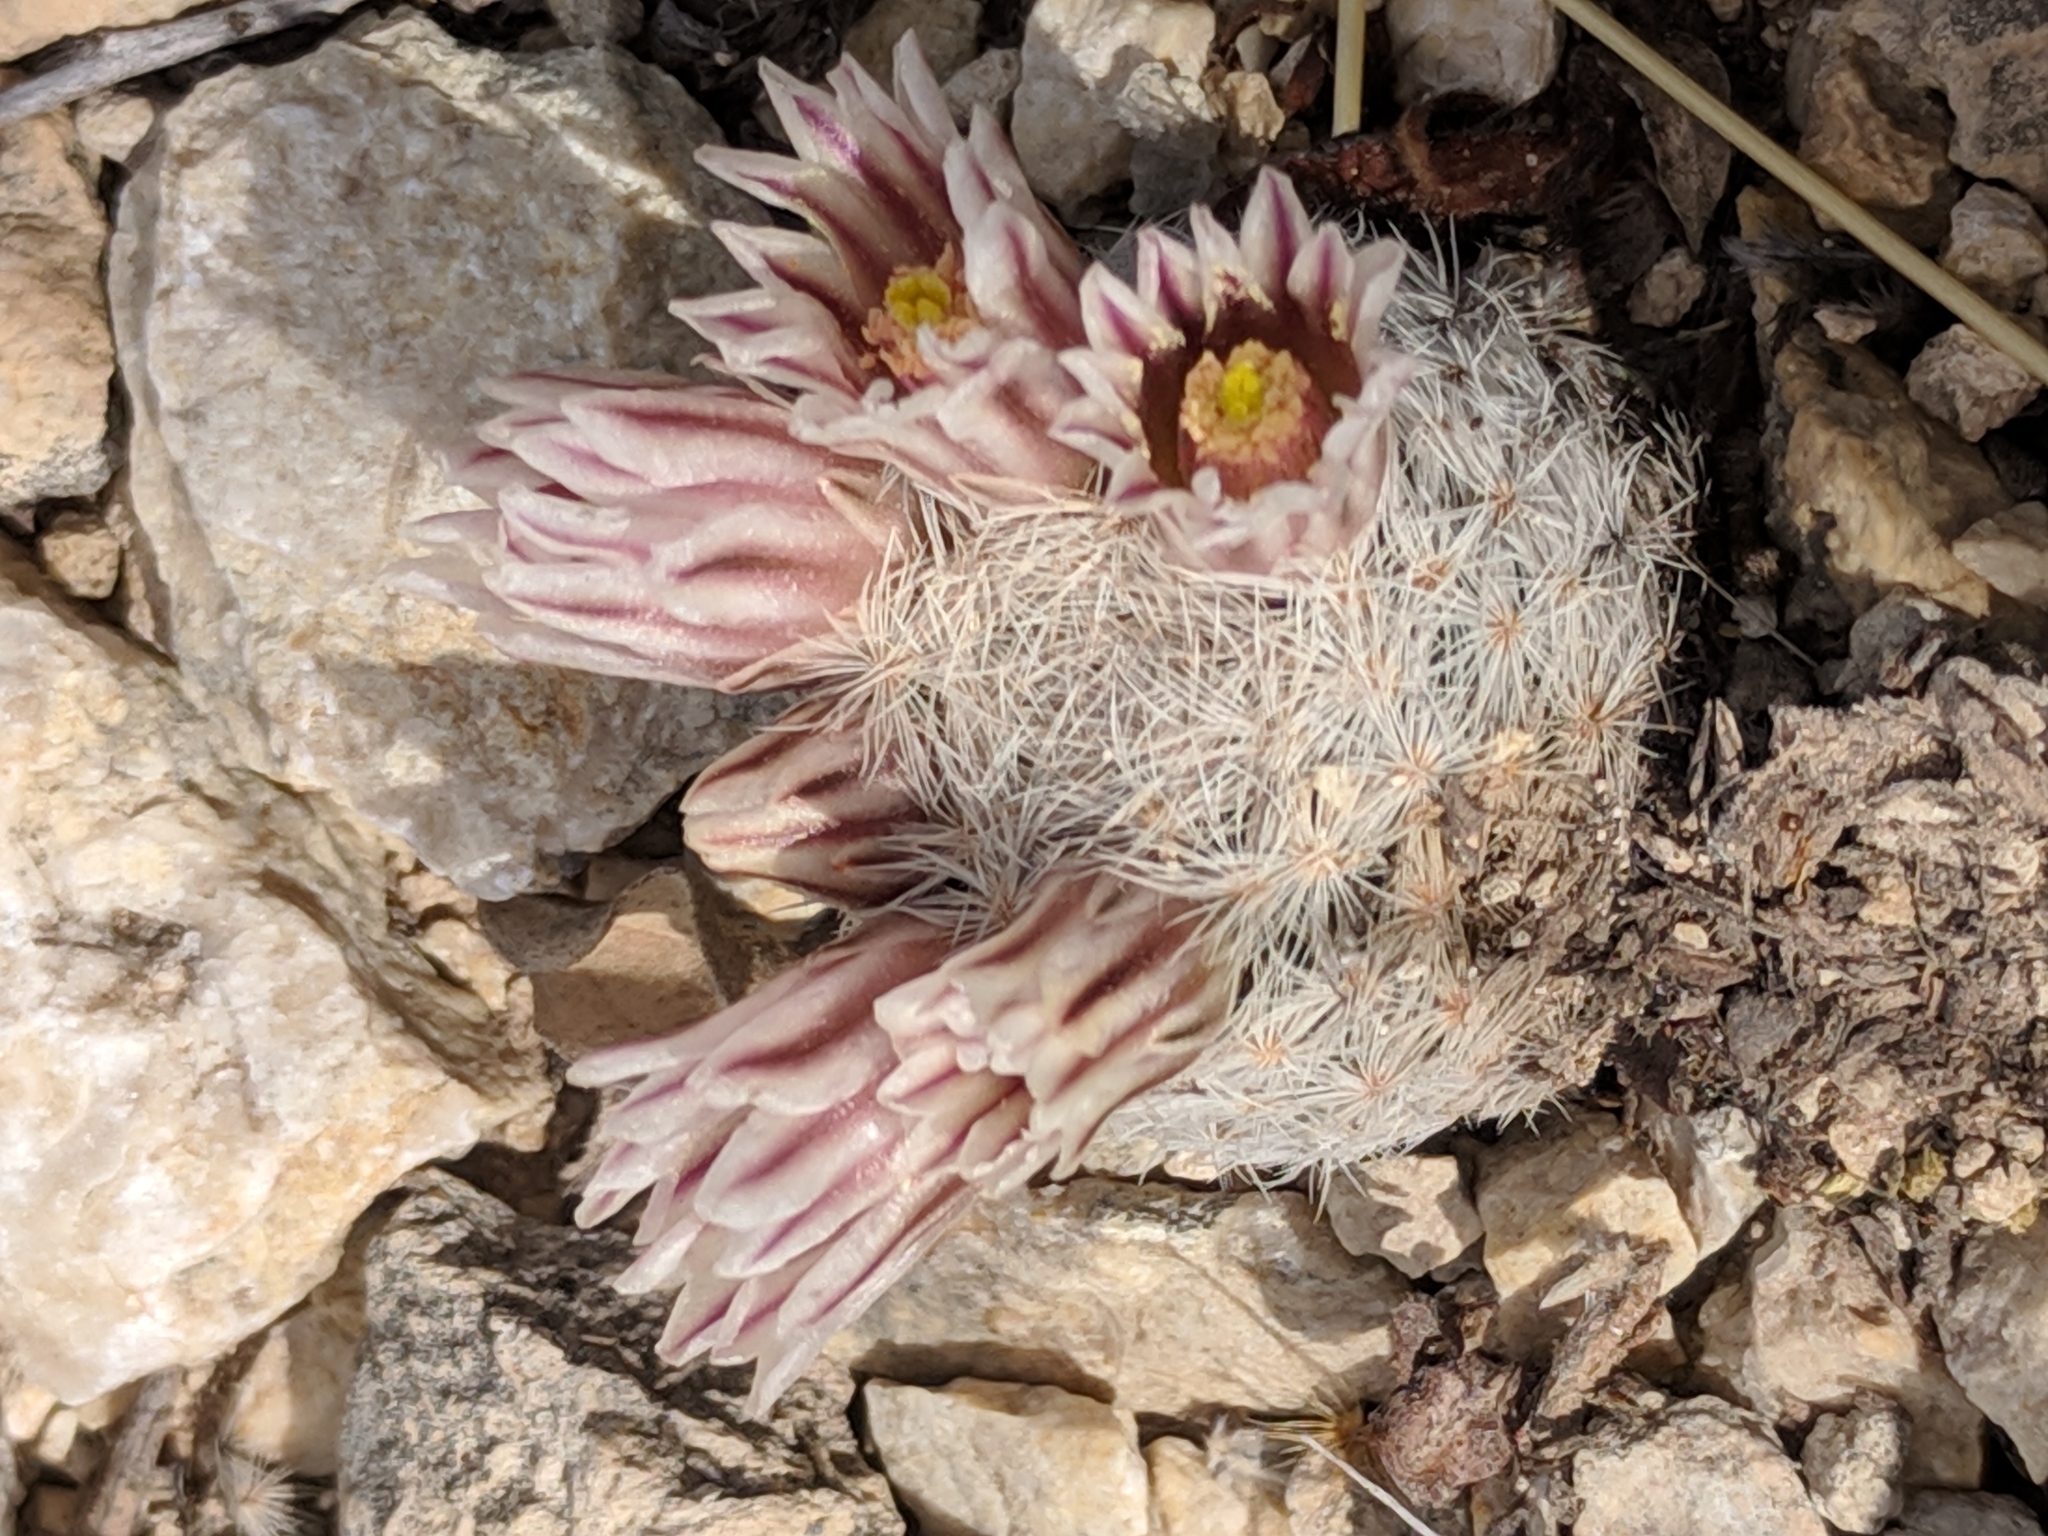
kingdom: Plantae
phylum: Tracheophyta
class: Magnoliopsida
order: Caryophyllales
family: Cactaceae
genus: Mammillaria
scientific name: Mammillaria lasiacantha
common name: Lace-spine nipple cactus
